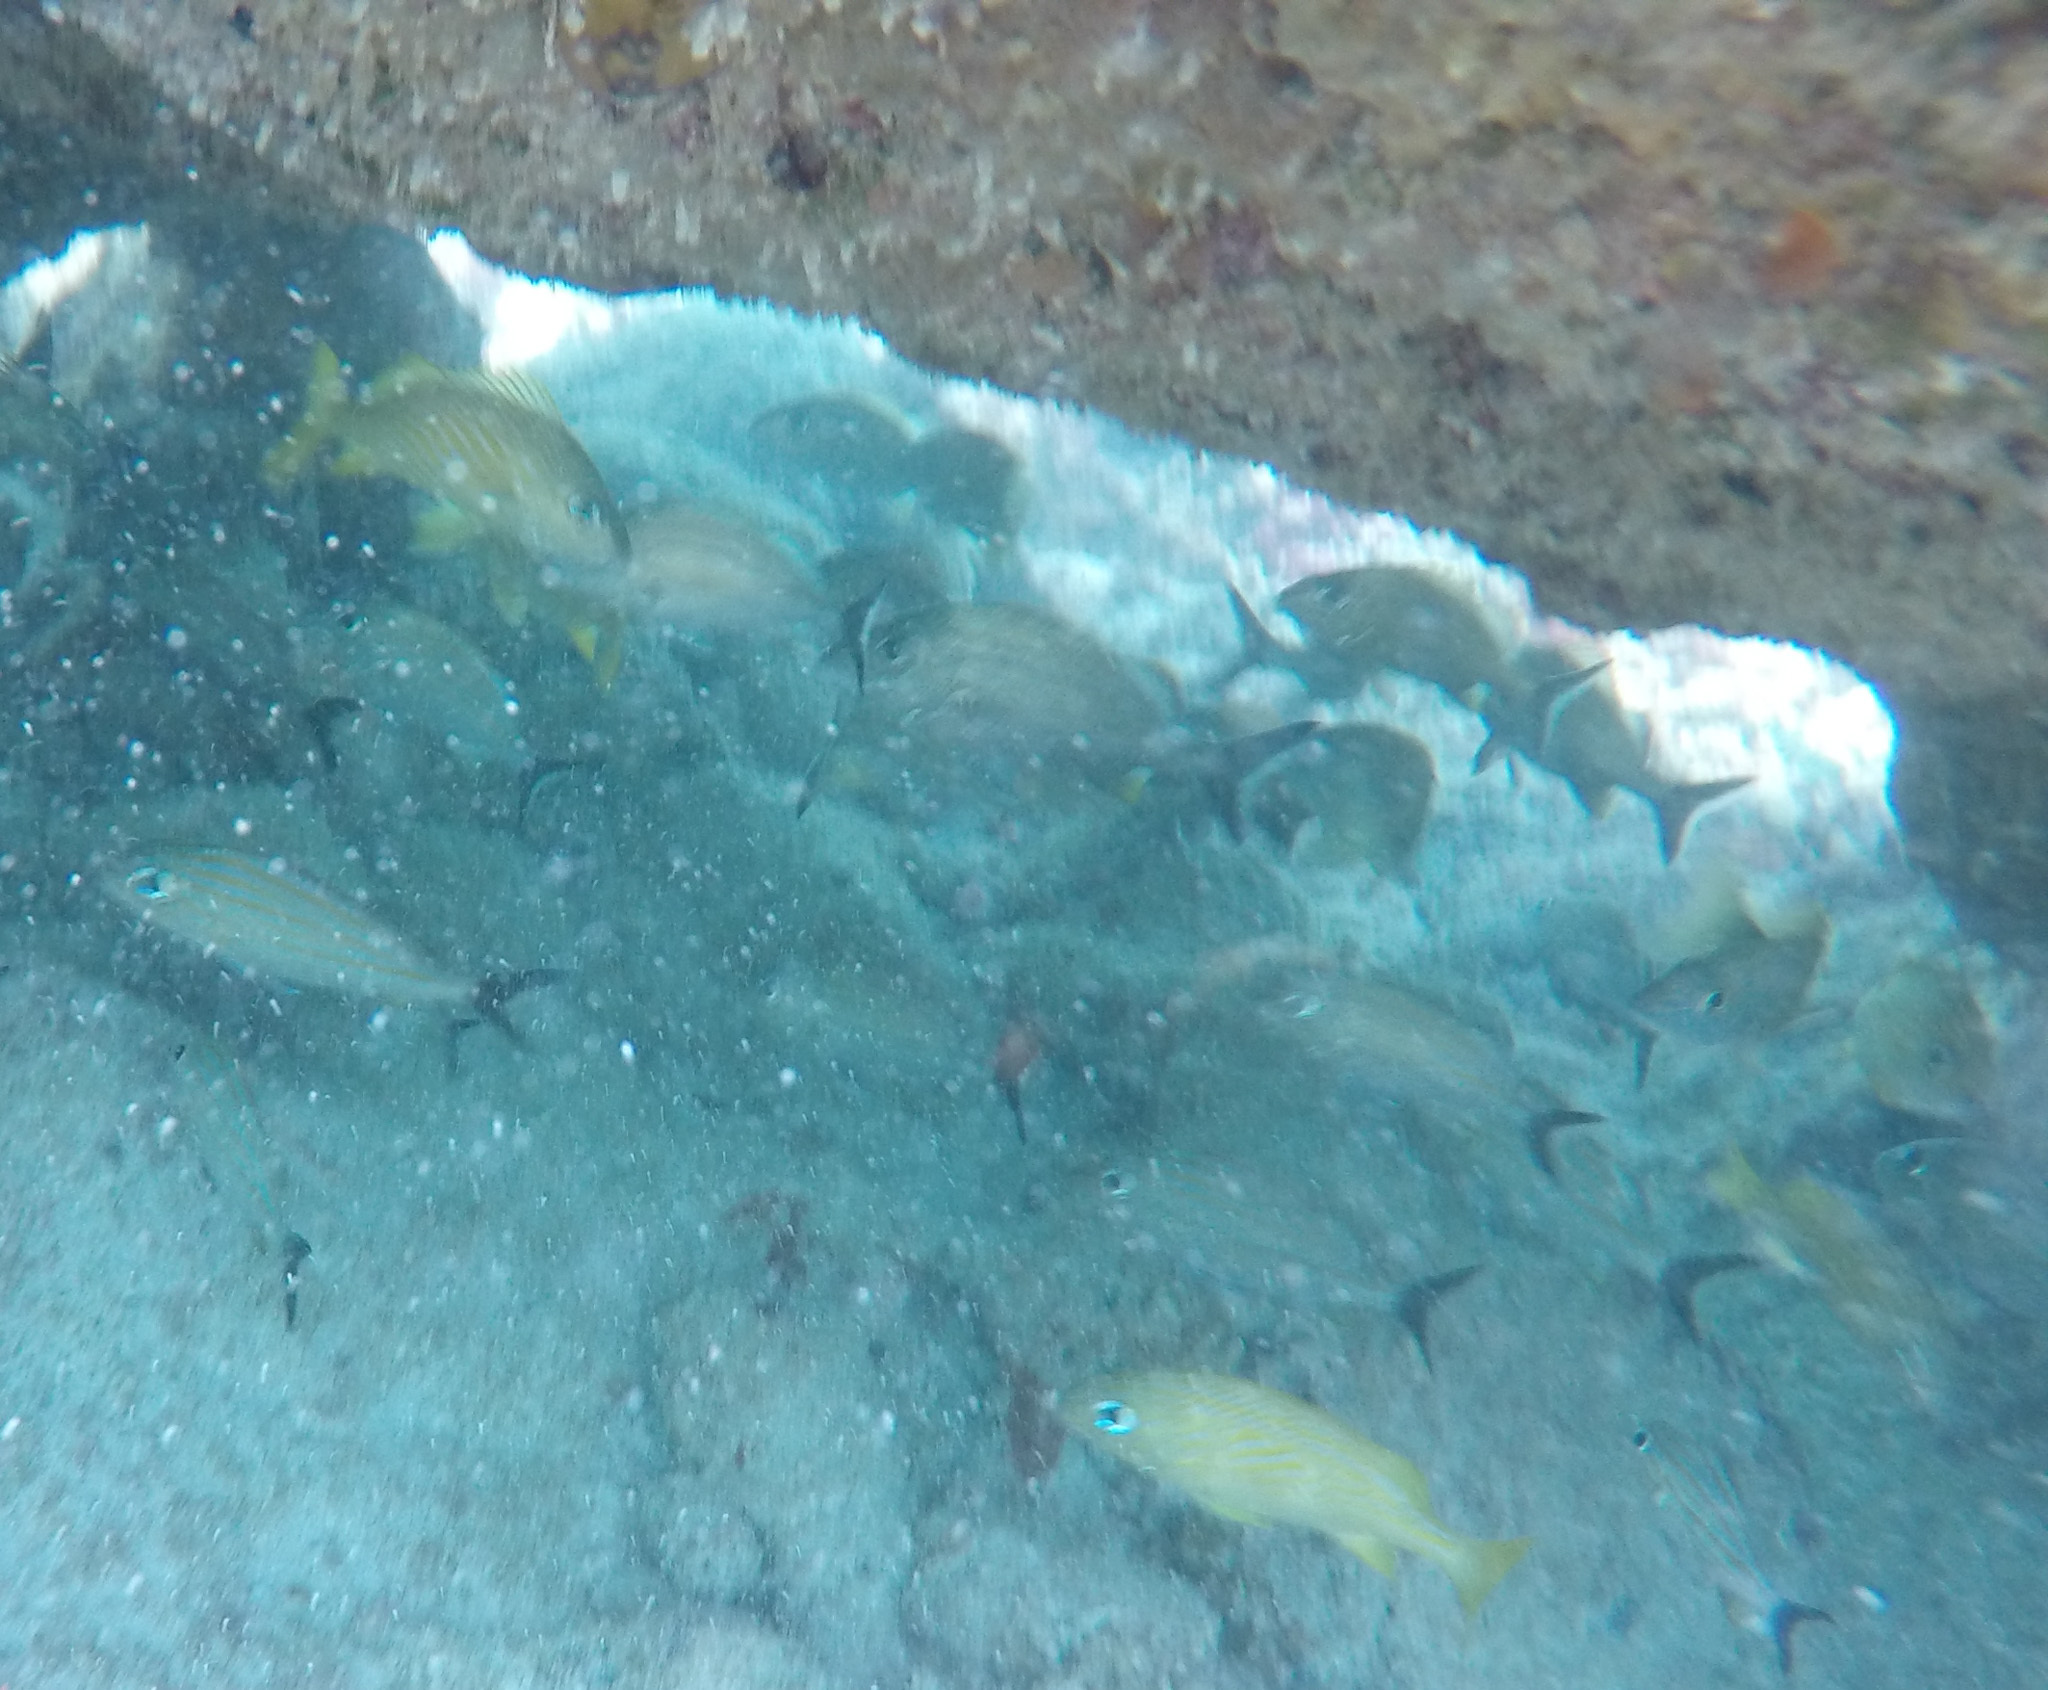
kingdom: Animalia
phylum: Chordata
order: Perciformes
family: Haemulidae
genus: Haemulon
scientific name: Haemulon carbonarium
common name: Caesar grunt
